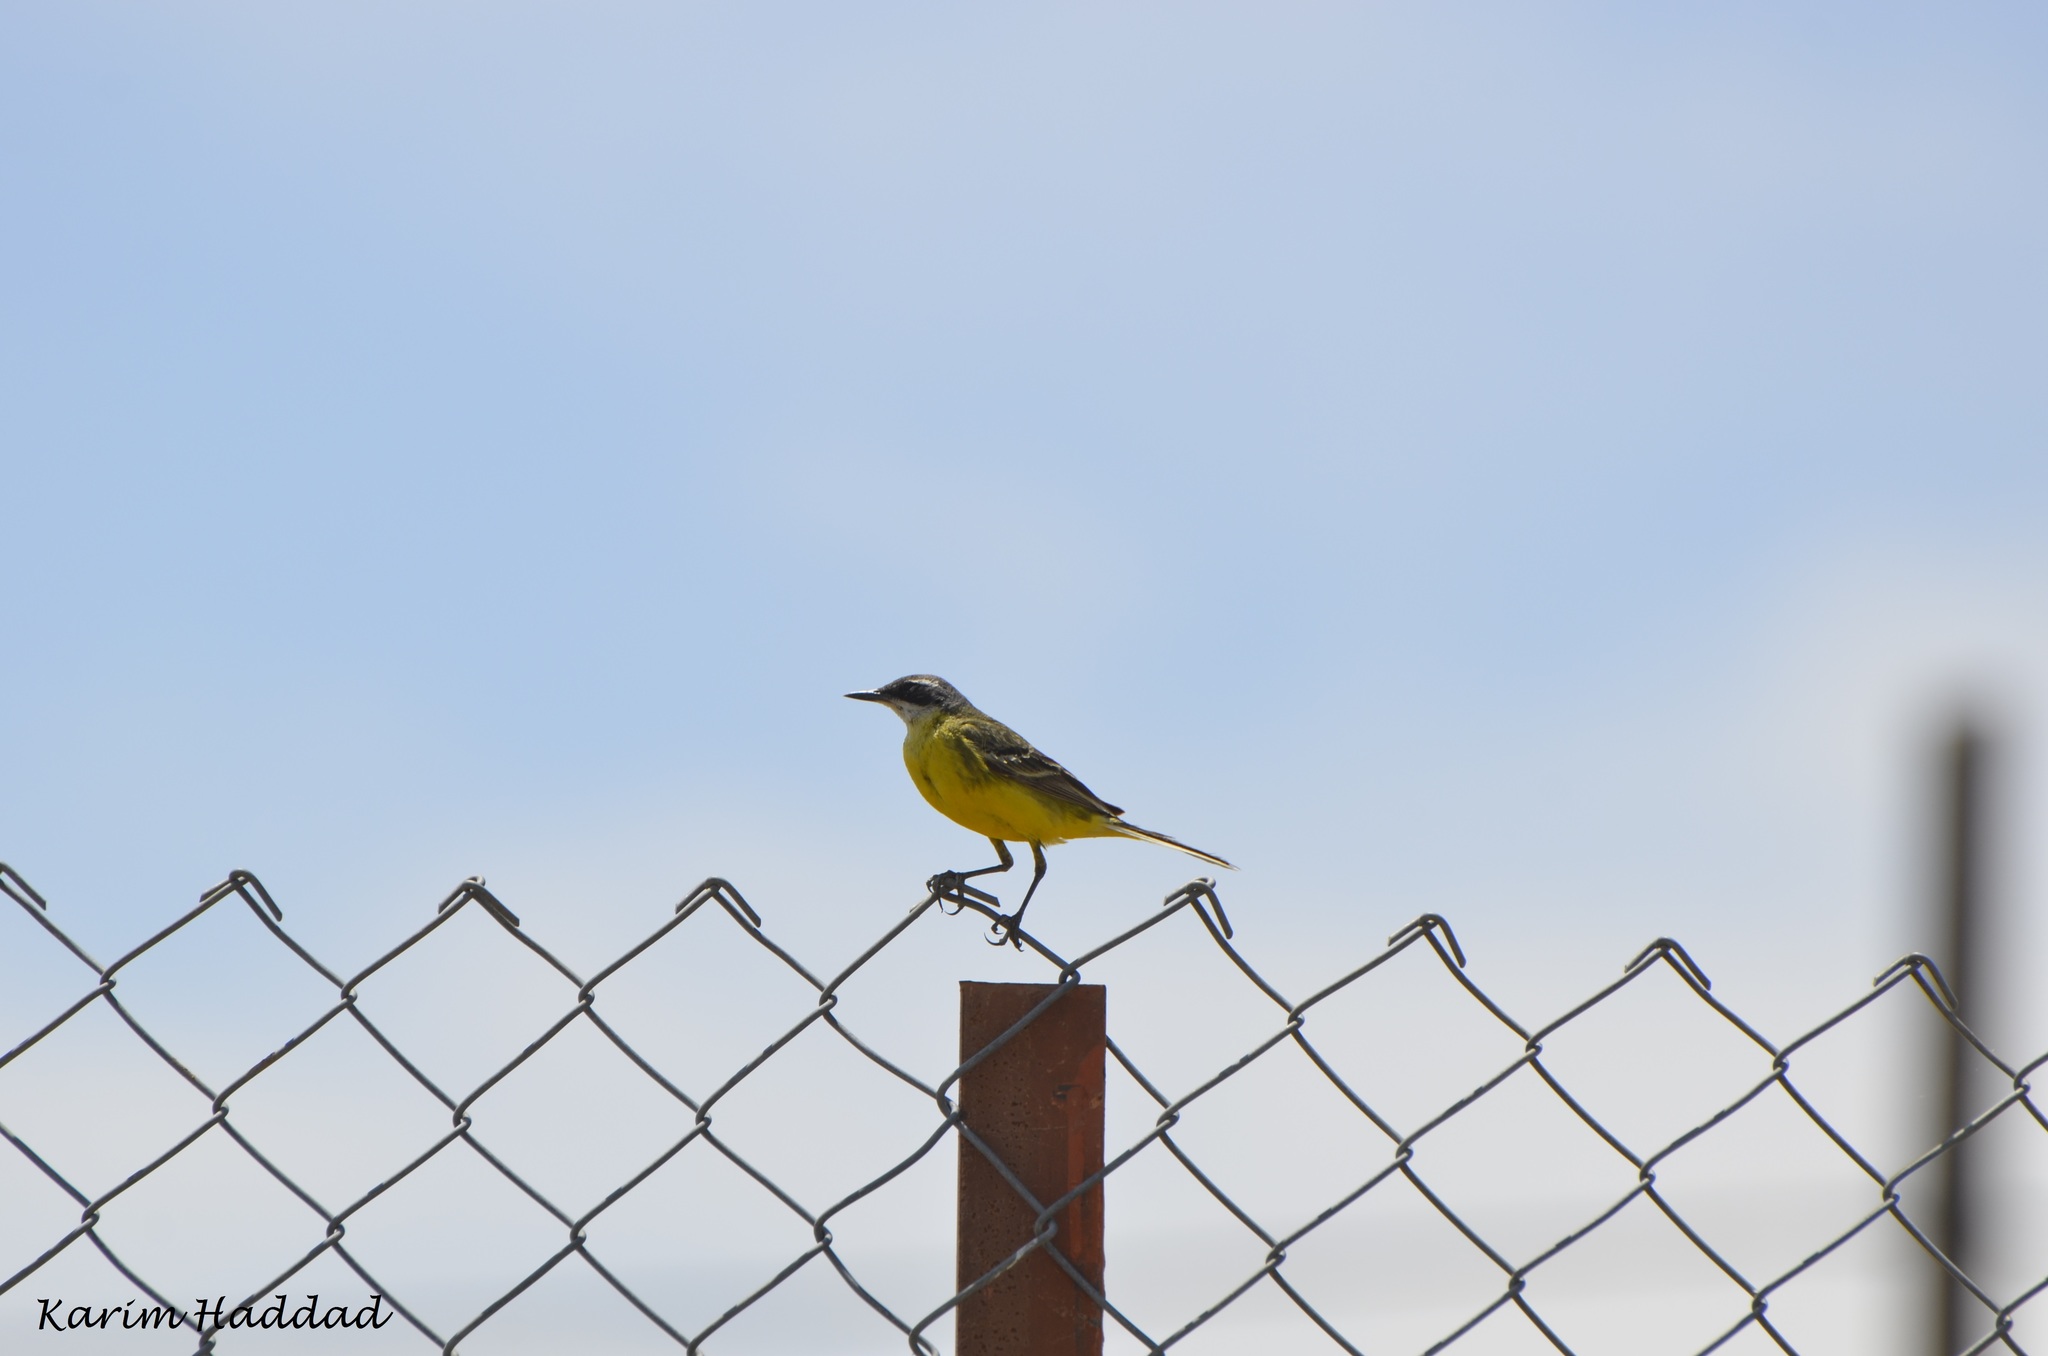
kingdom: Animalia
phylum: Chordata
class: Aves
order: Passeriformes
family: Motacillidae
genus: Motacilla
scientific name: Motacilla flava
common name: Western yellow wagtail
